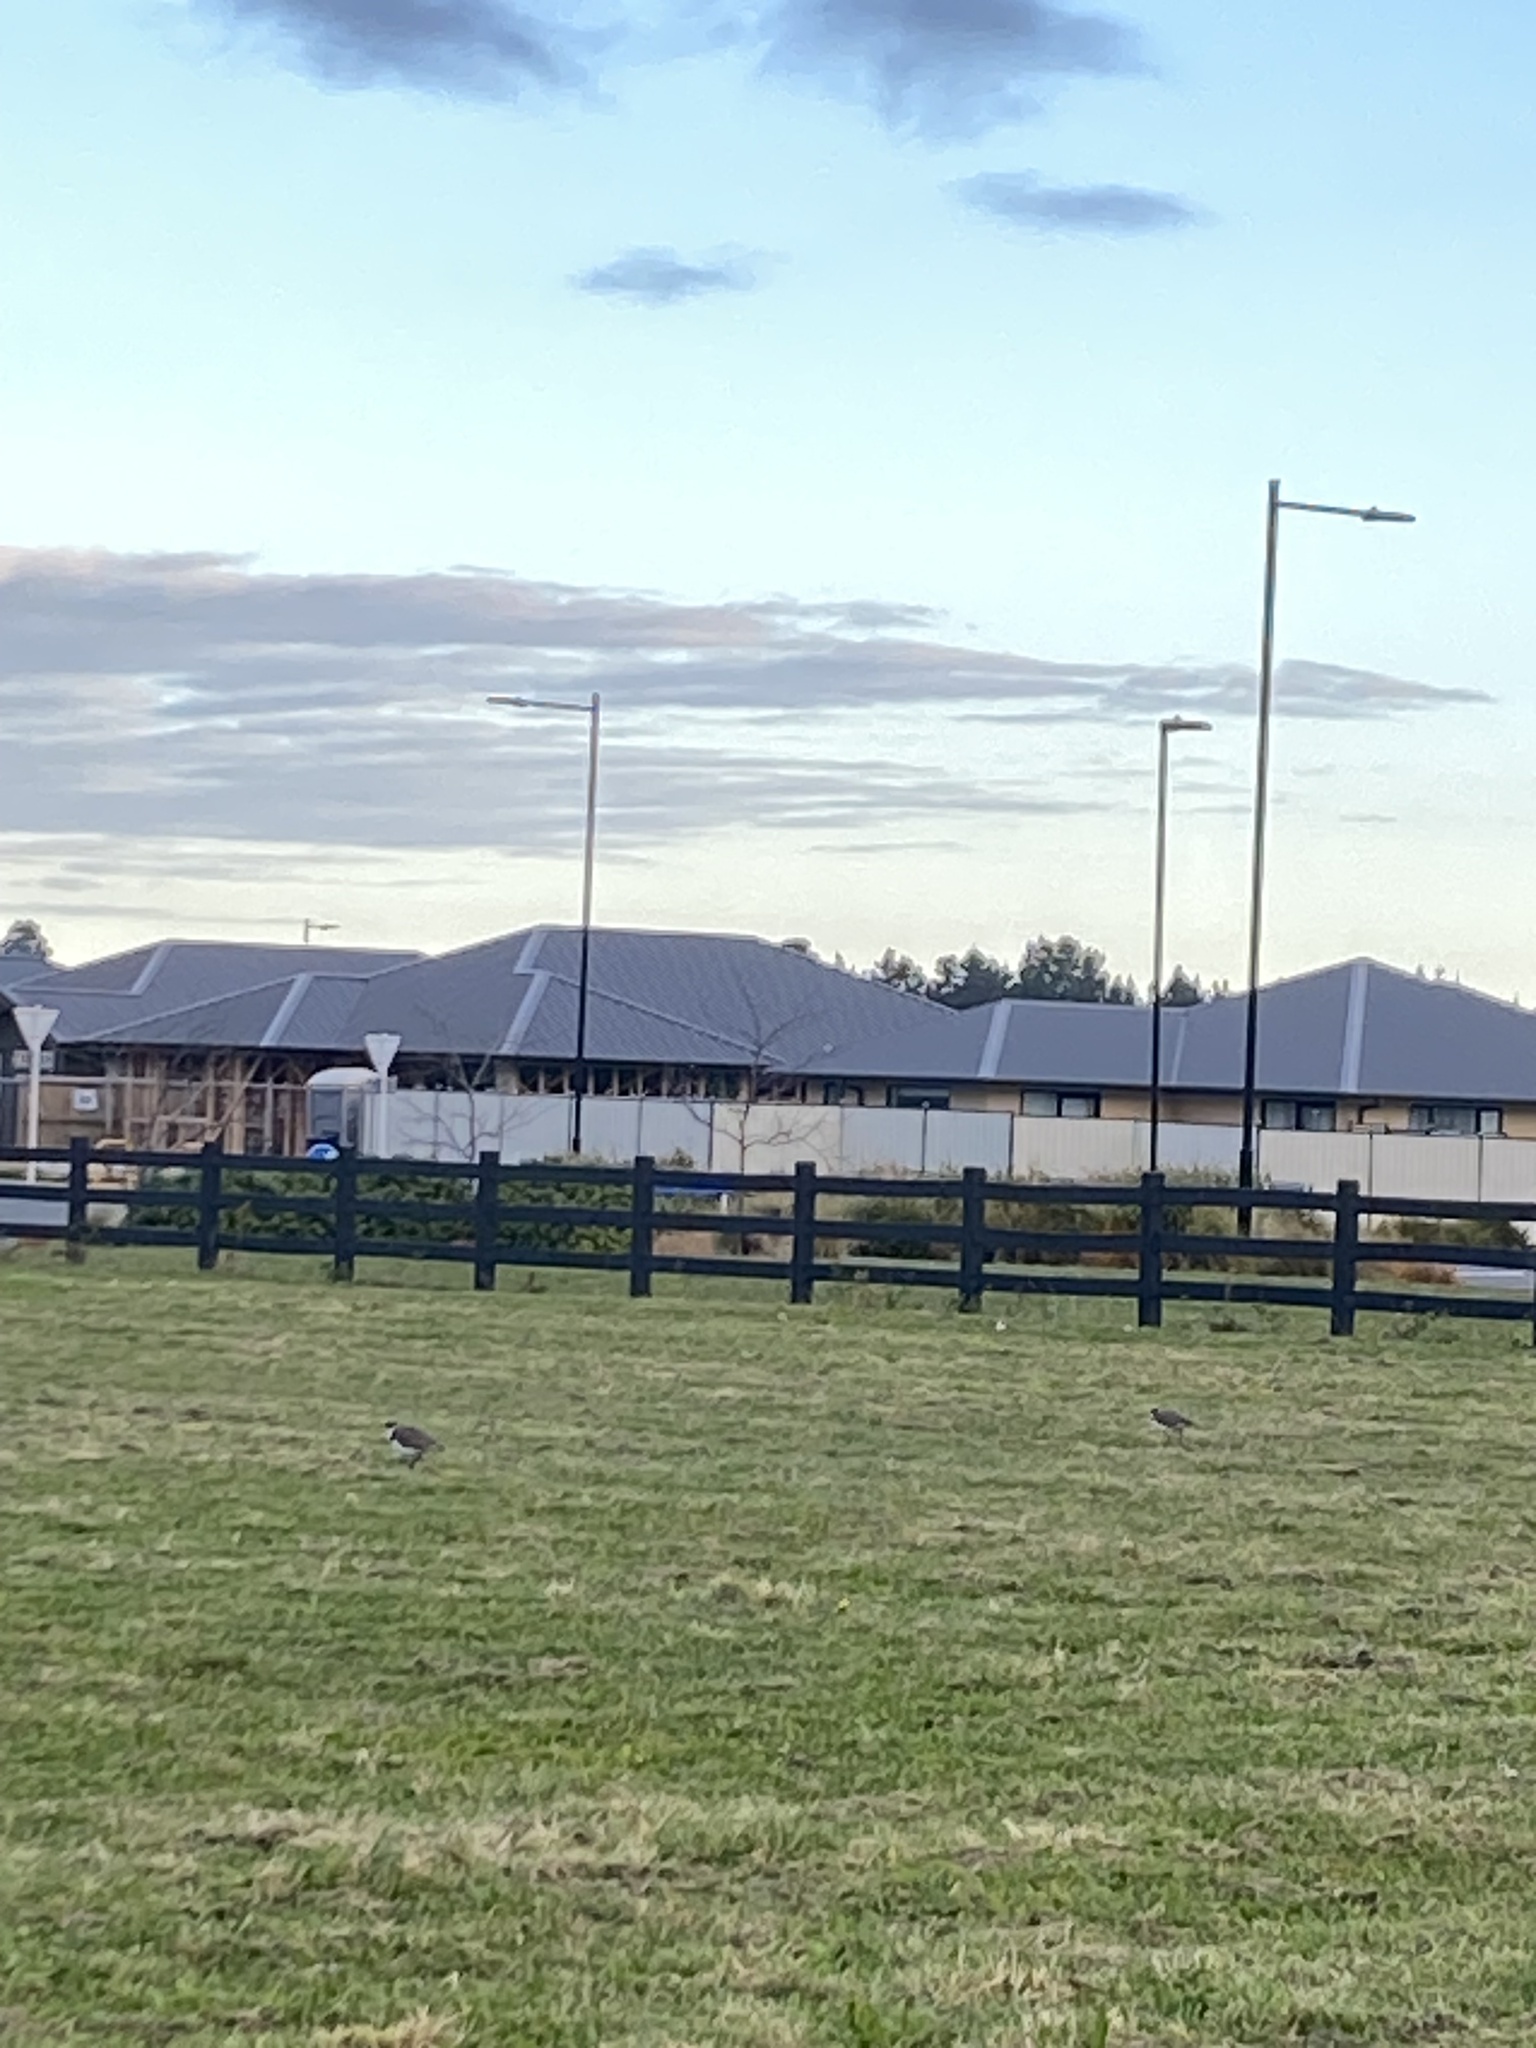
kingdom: Animalia
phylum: Chordata
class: Aves
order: Charadriiformes
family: Charadriidae
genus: Vanellus
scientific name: Vanellus miles
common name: Masked lapwing
